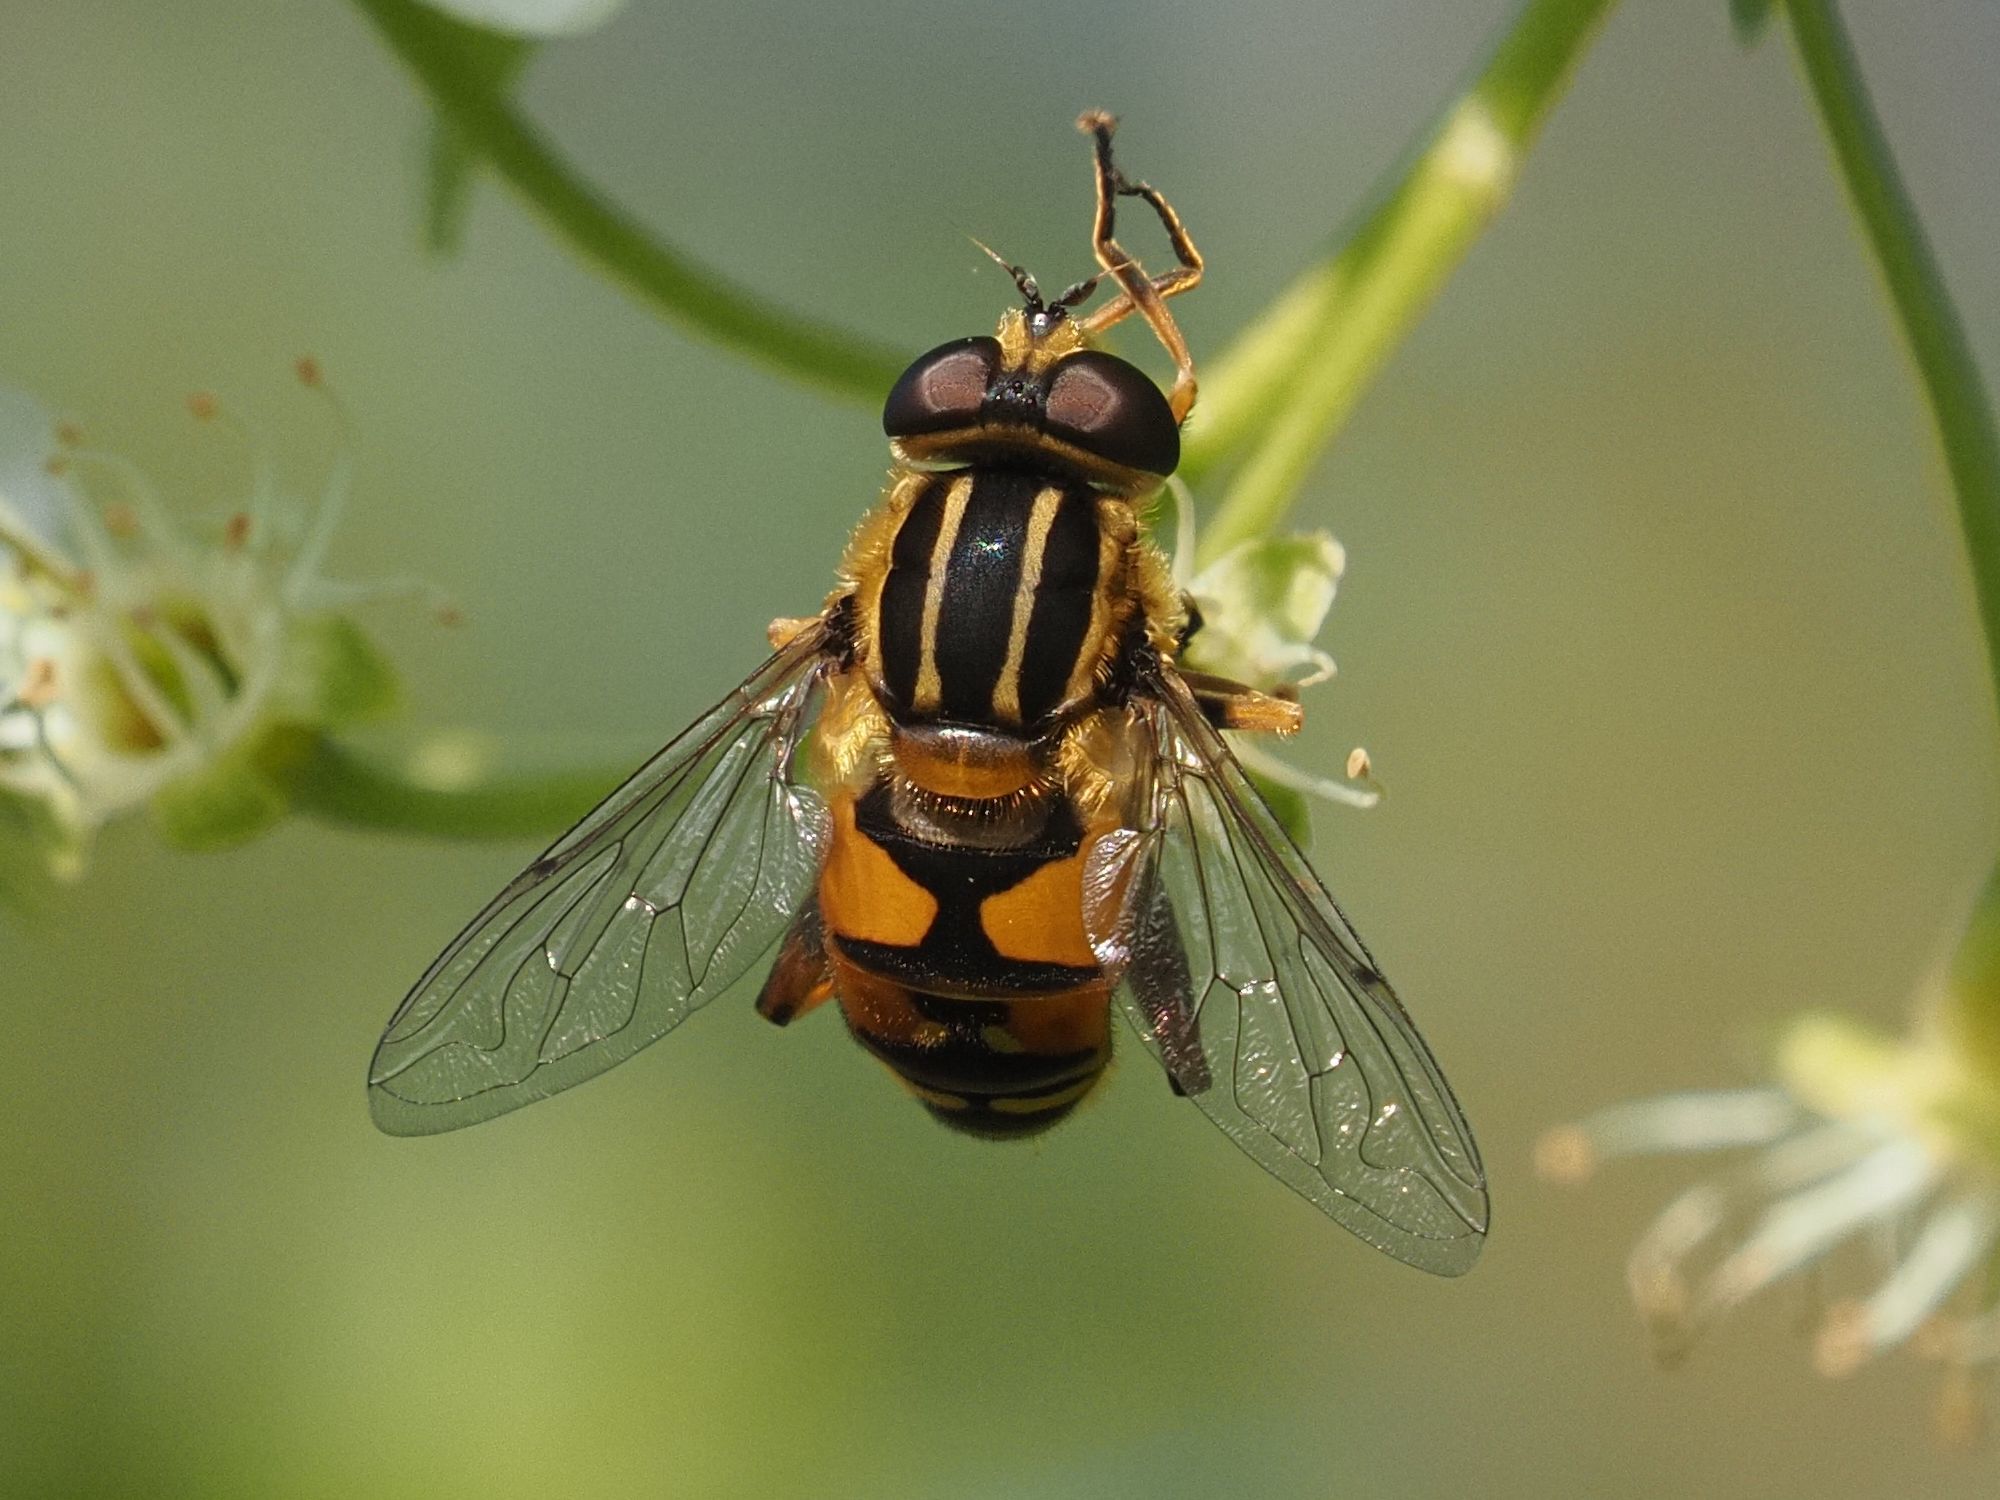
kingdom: Animalia
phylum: Arthropoda
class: Insecta
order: Diptera
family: Syrphidae
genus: Helophilus
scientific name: Helophilus pendulus
